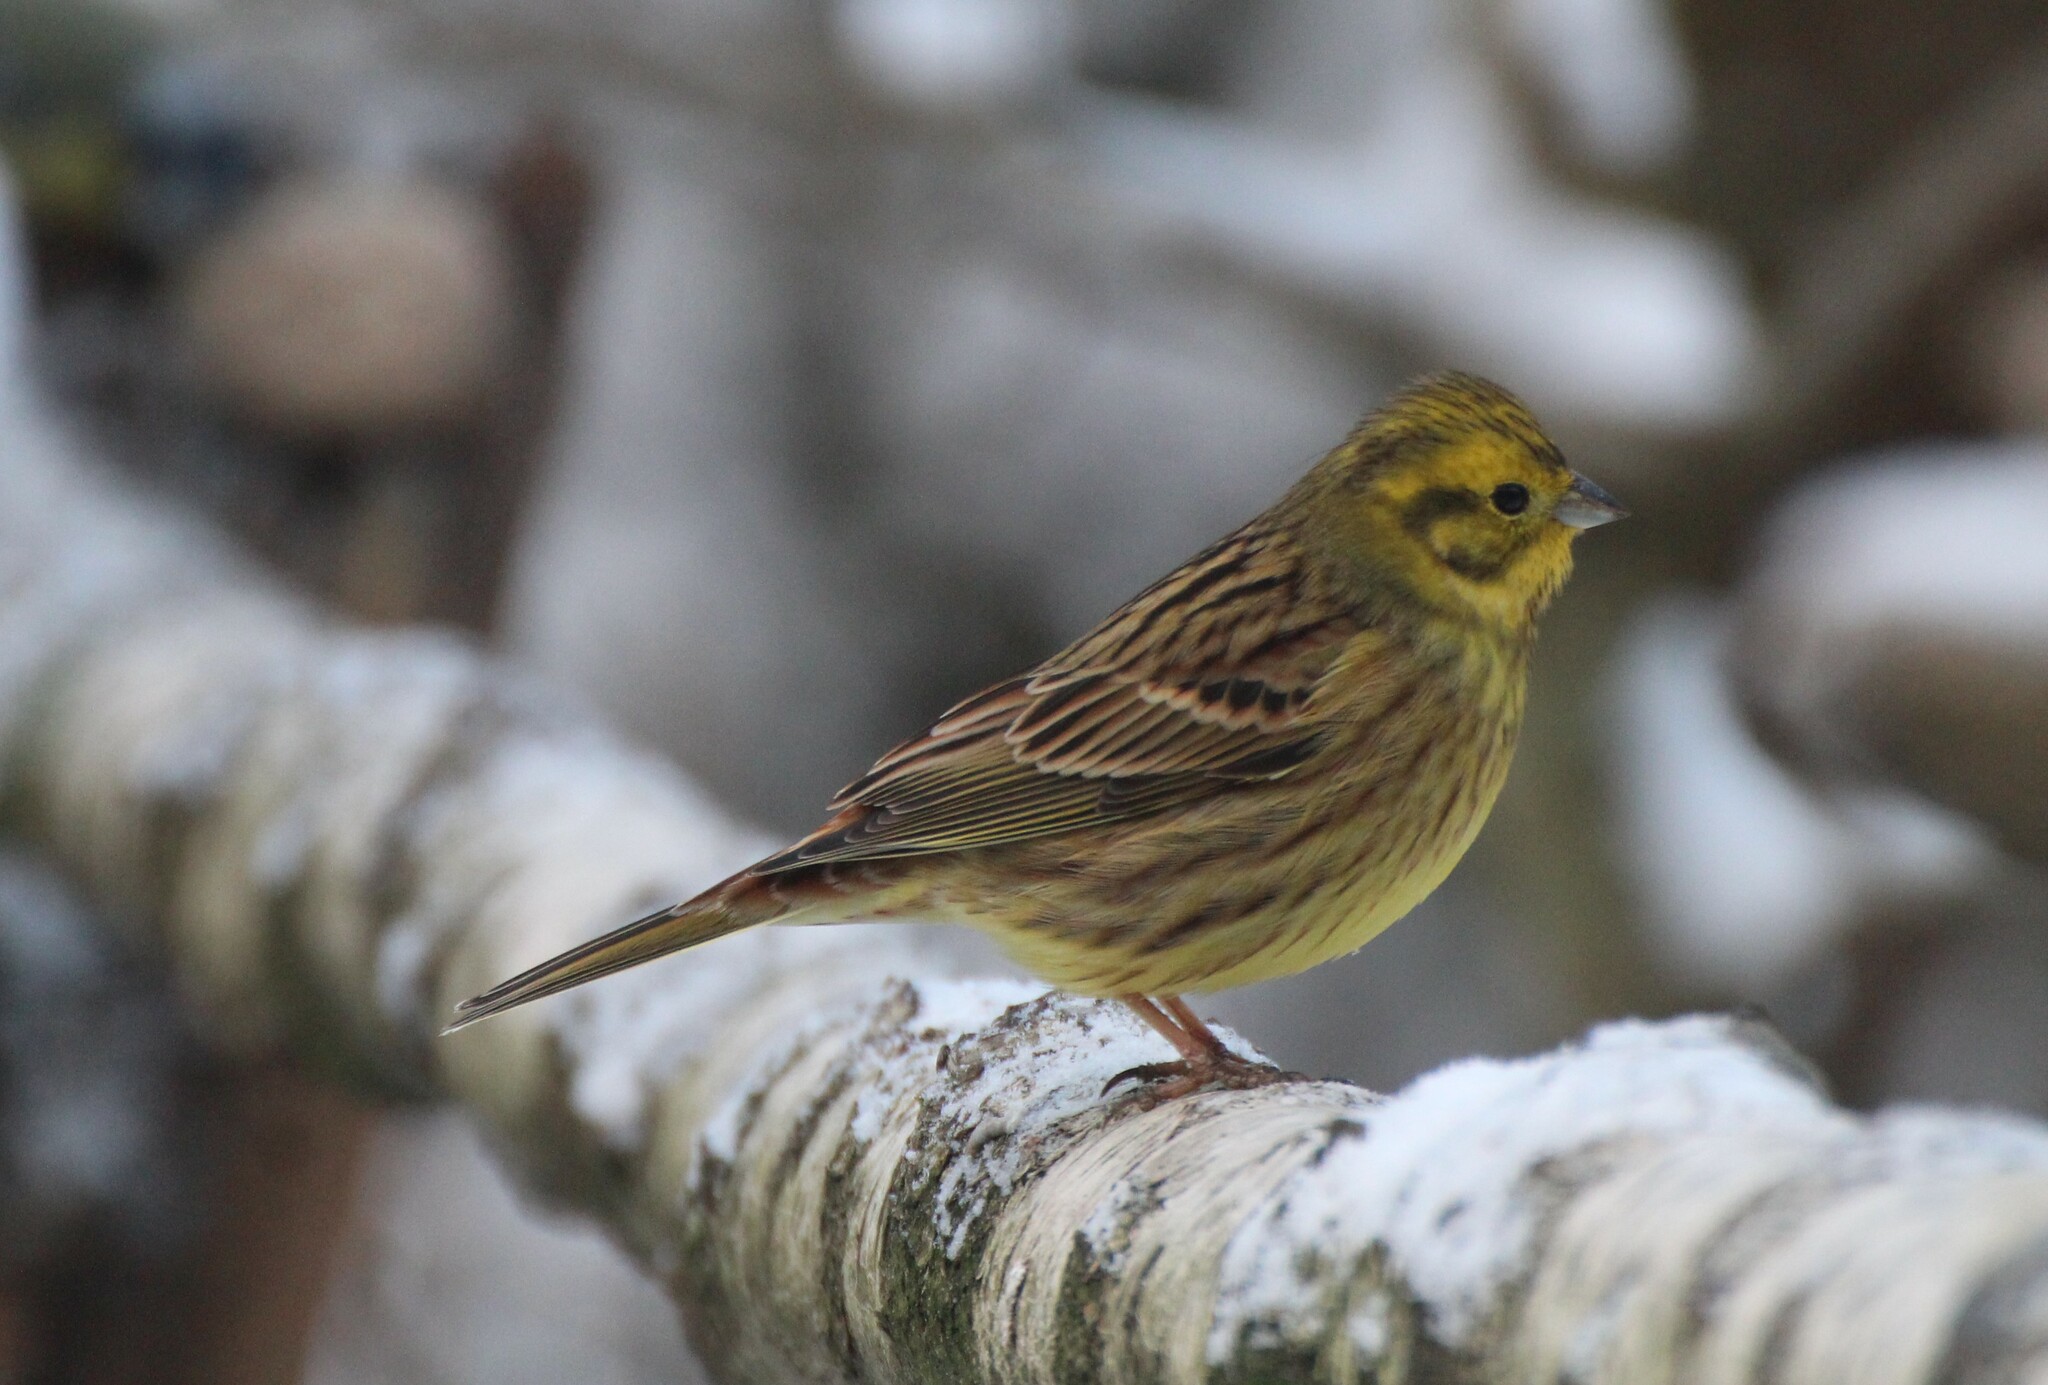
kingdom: Animalia
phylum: Chordata
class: Aves
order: Passeriformes
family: Emberizidae
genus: Emberiza
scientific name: Emberiza citrinella
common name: Yellowhammer
